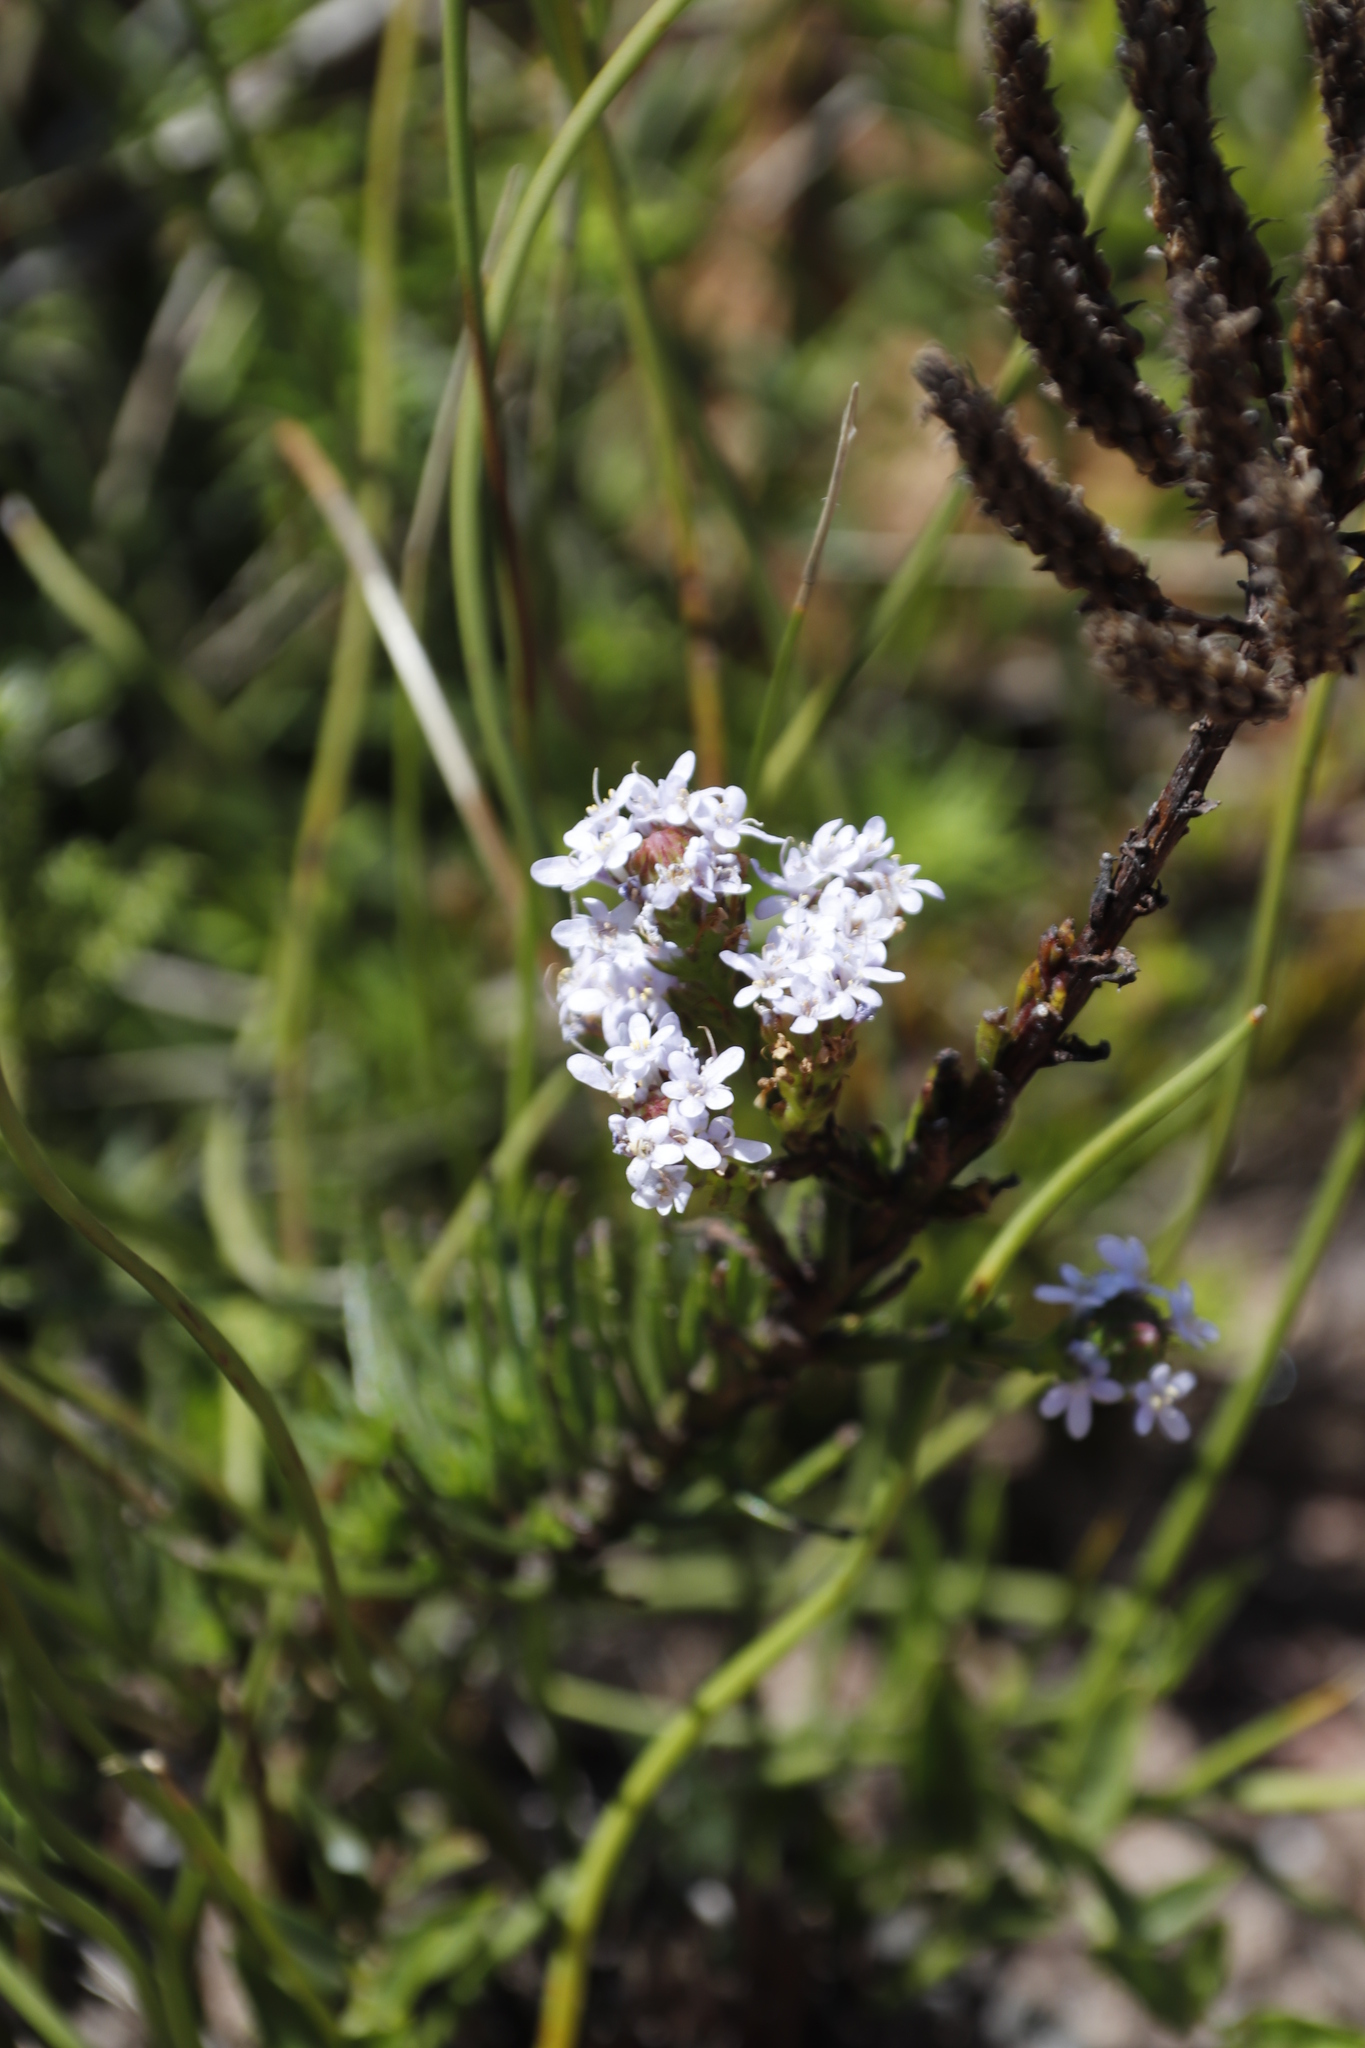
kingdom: Plantae
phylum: Tracheophyta
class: Magnoliopsida
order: Lamiales
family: Scrophulariaceae
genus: Pseudoselago
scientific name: Pseudoselago spuria
